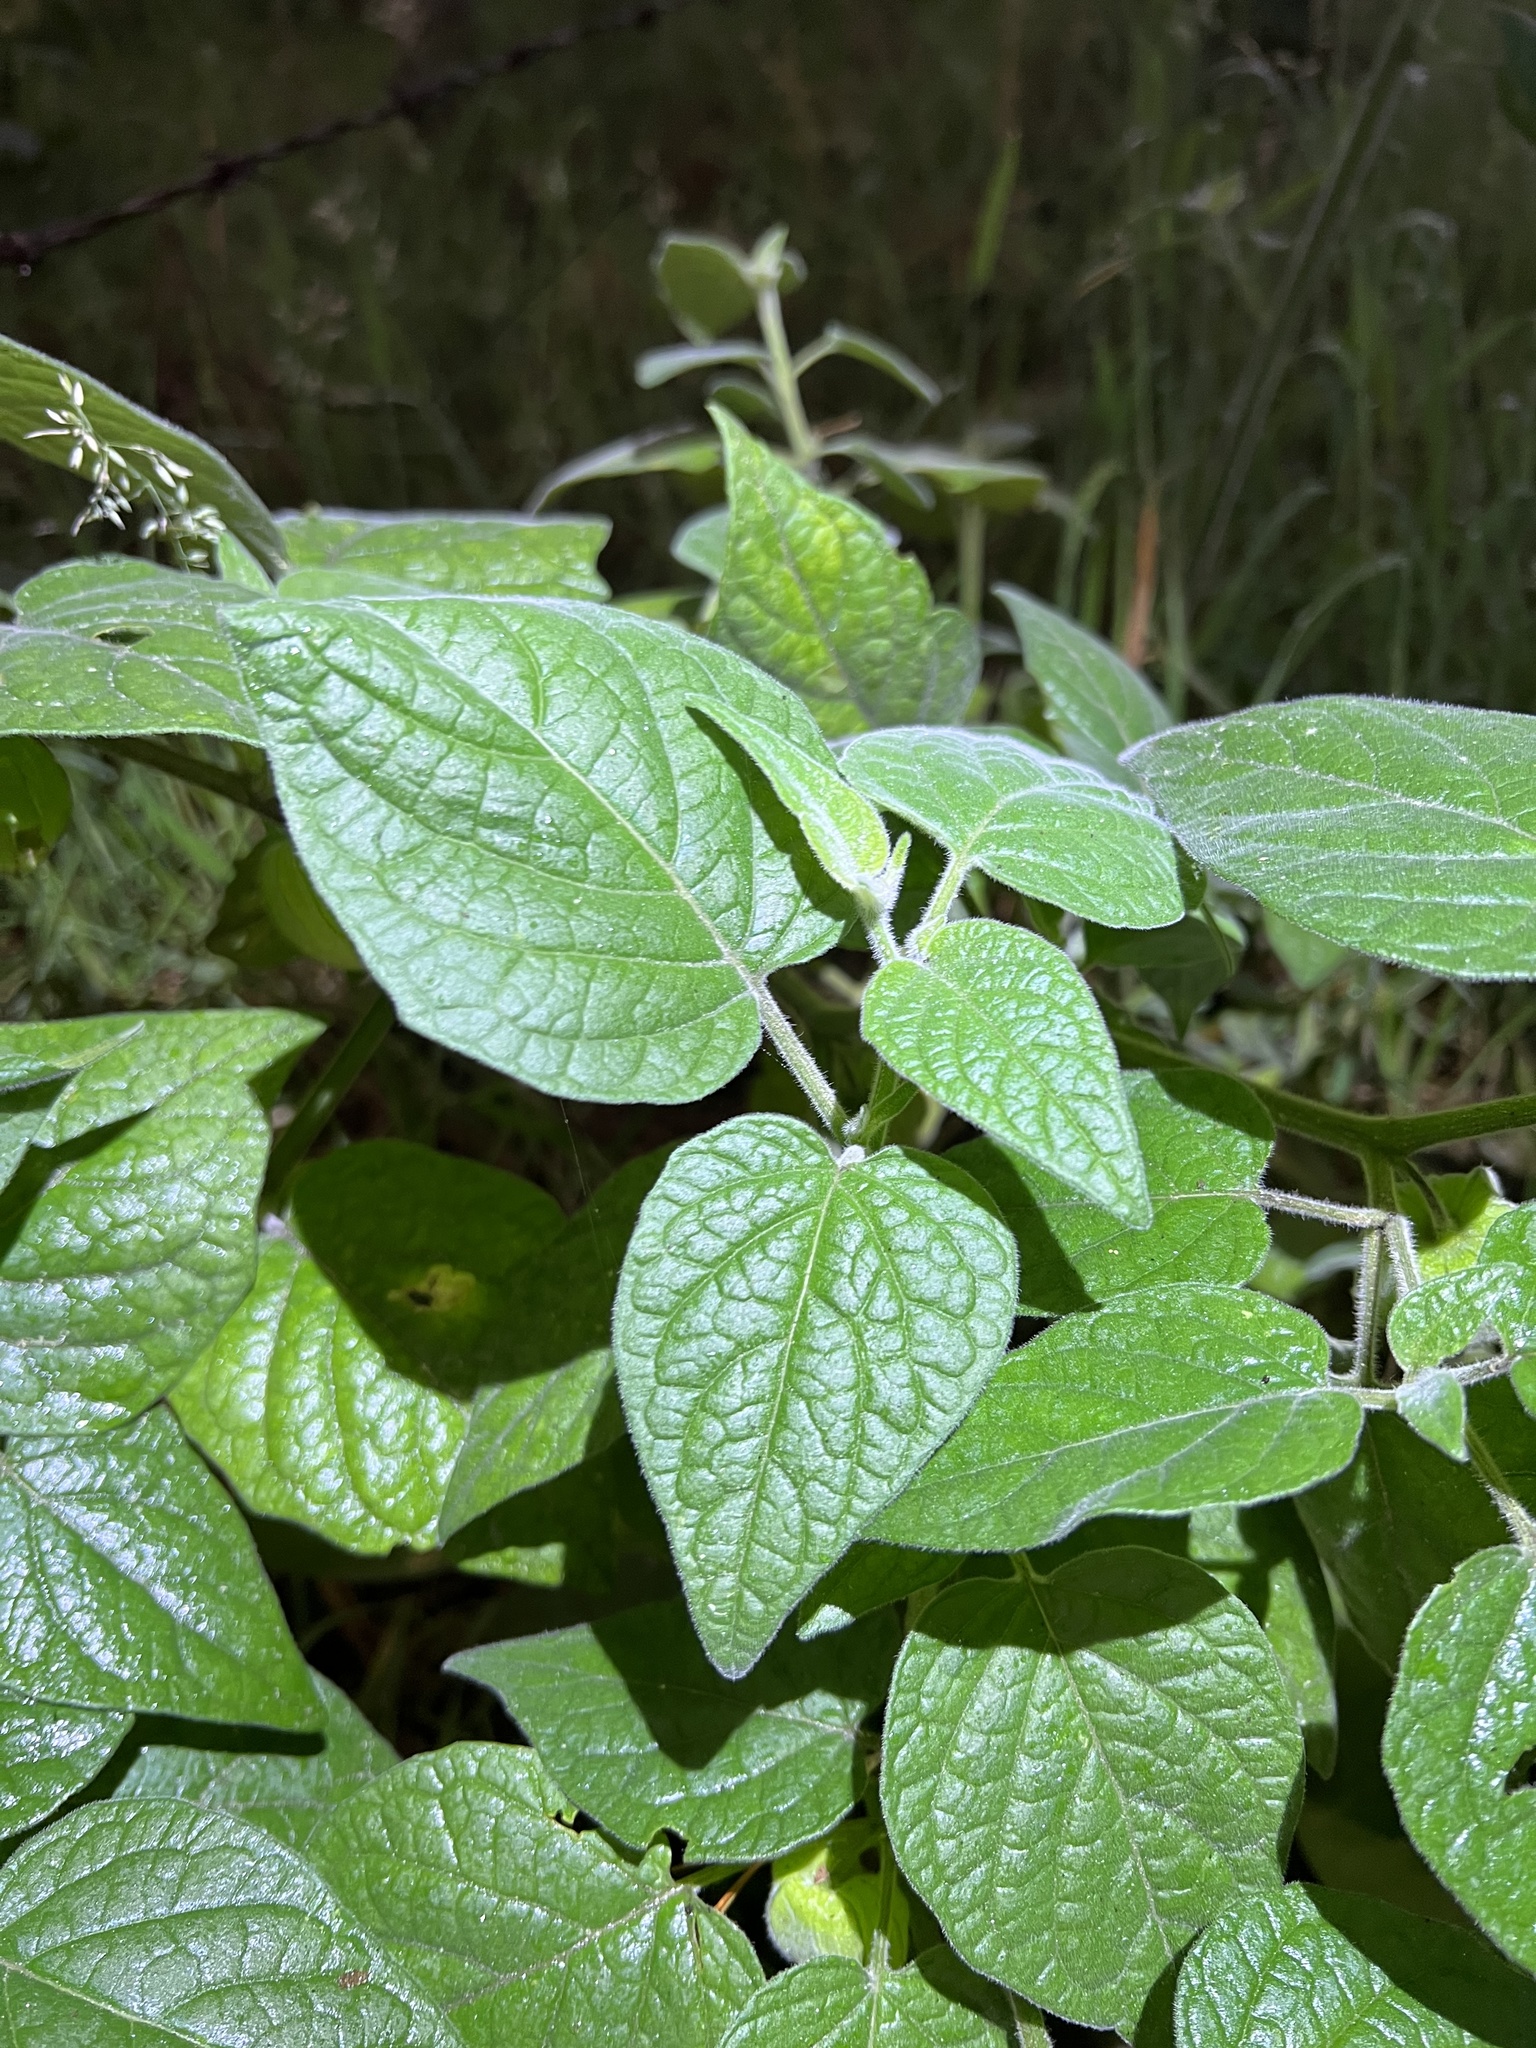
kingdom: Plantae
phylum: Tracheophyta
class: Magnoliopsida
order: Solanales
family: Solanaceae
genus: Physalis
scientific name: Physalis peruviana
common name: Cape-gooseberry
